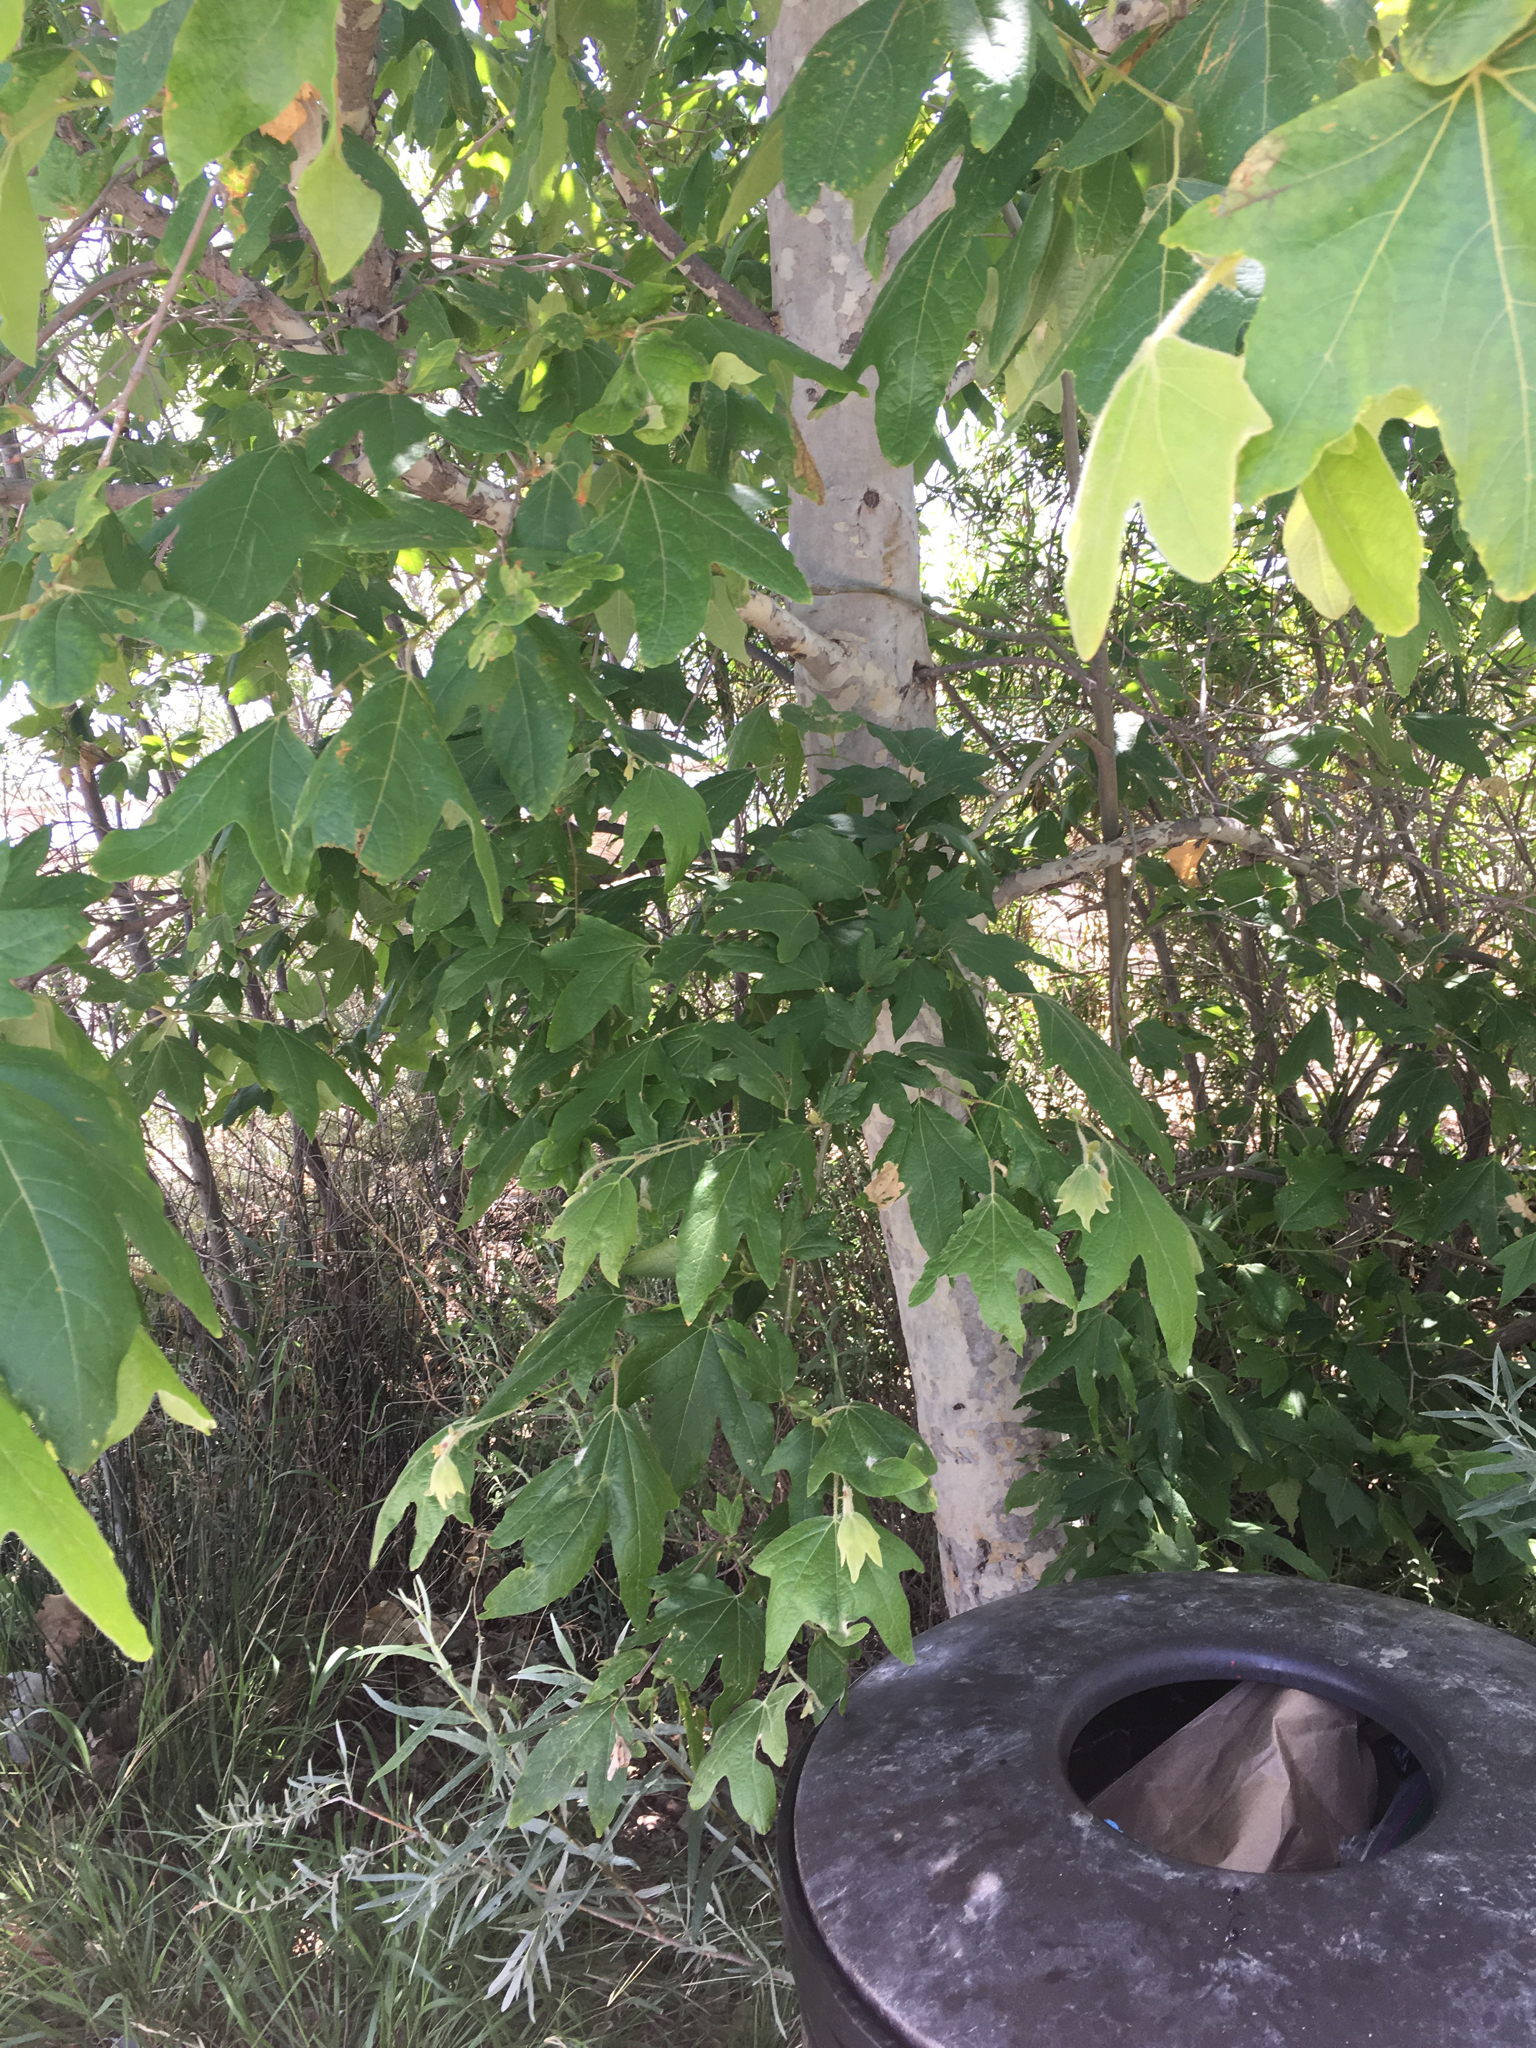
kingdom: Plantae
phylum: Tracheophyta
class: Magnoliopsida
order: Proteales
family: Platanaceae
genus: Platanus
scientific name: Platanus racemosa
